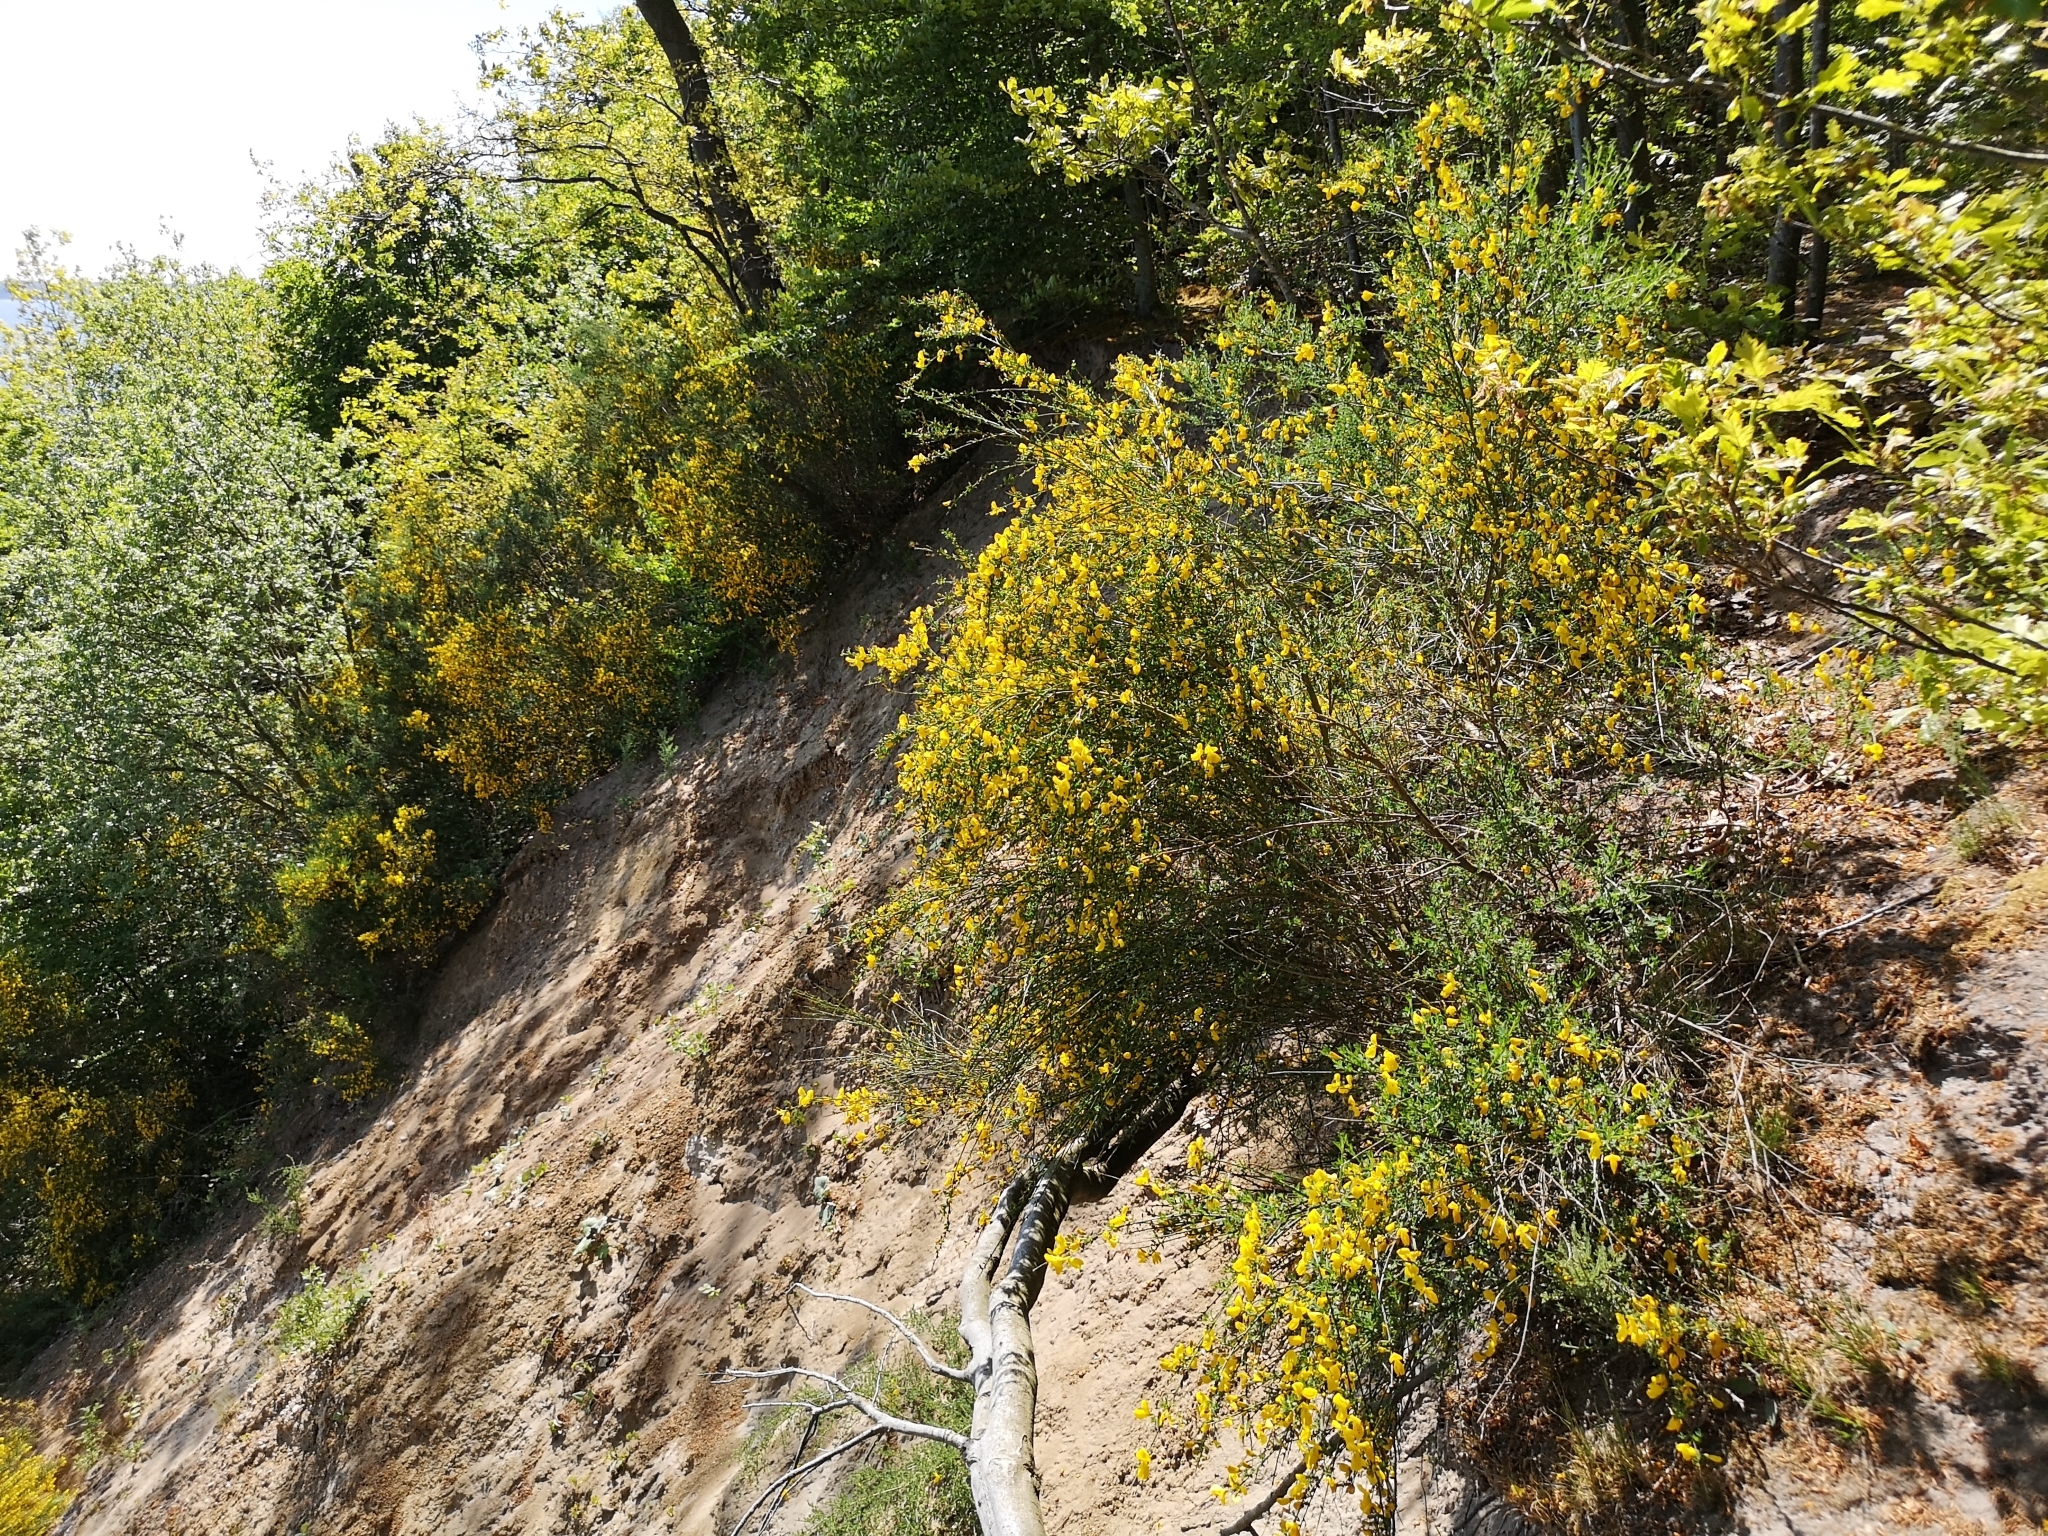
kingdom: Plantae
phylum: Tracheophyta
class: Magnoliopsida
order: Fabales
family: Fabaceae
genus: Cytisus
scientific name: Cytisus scoparius
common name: Scotch broom
